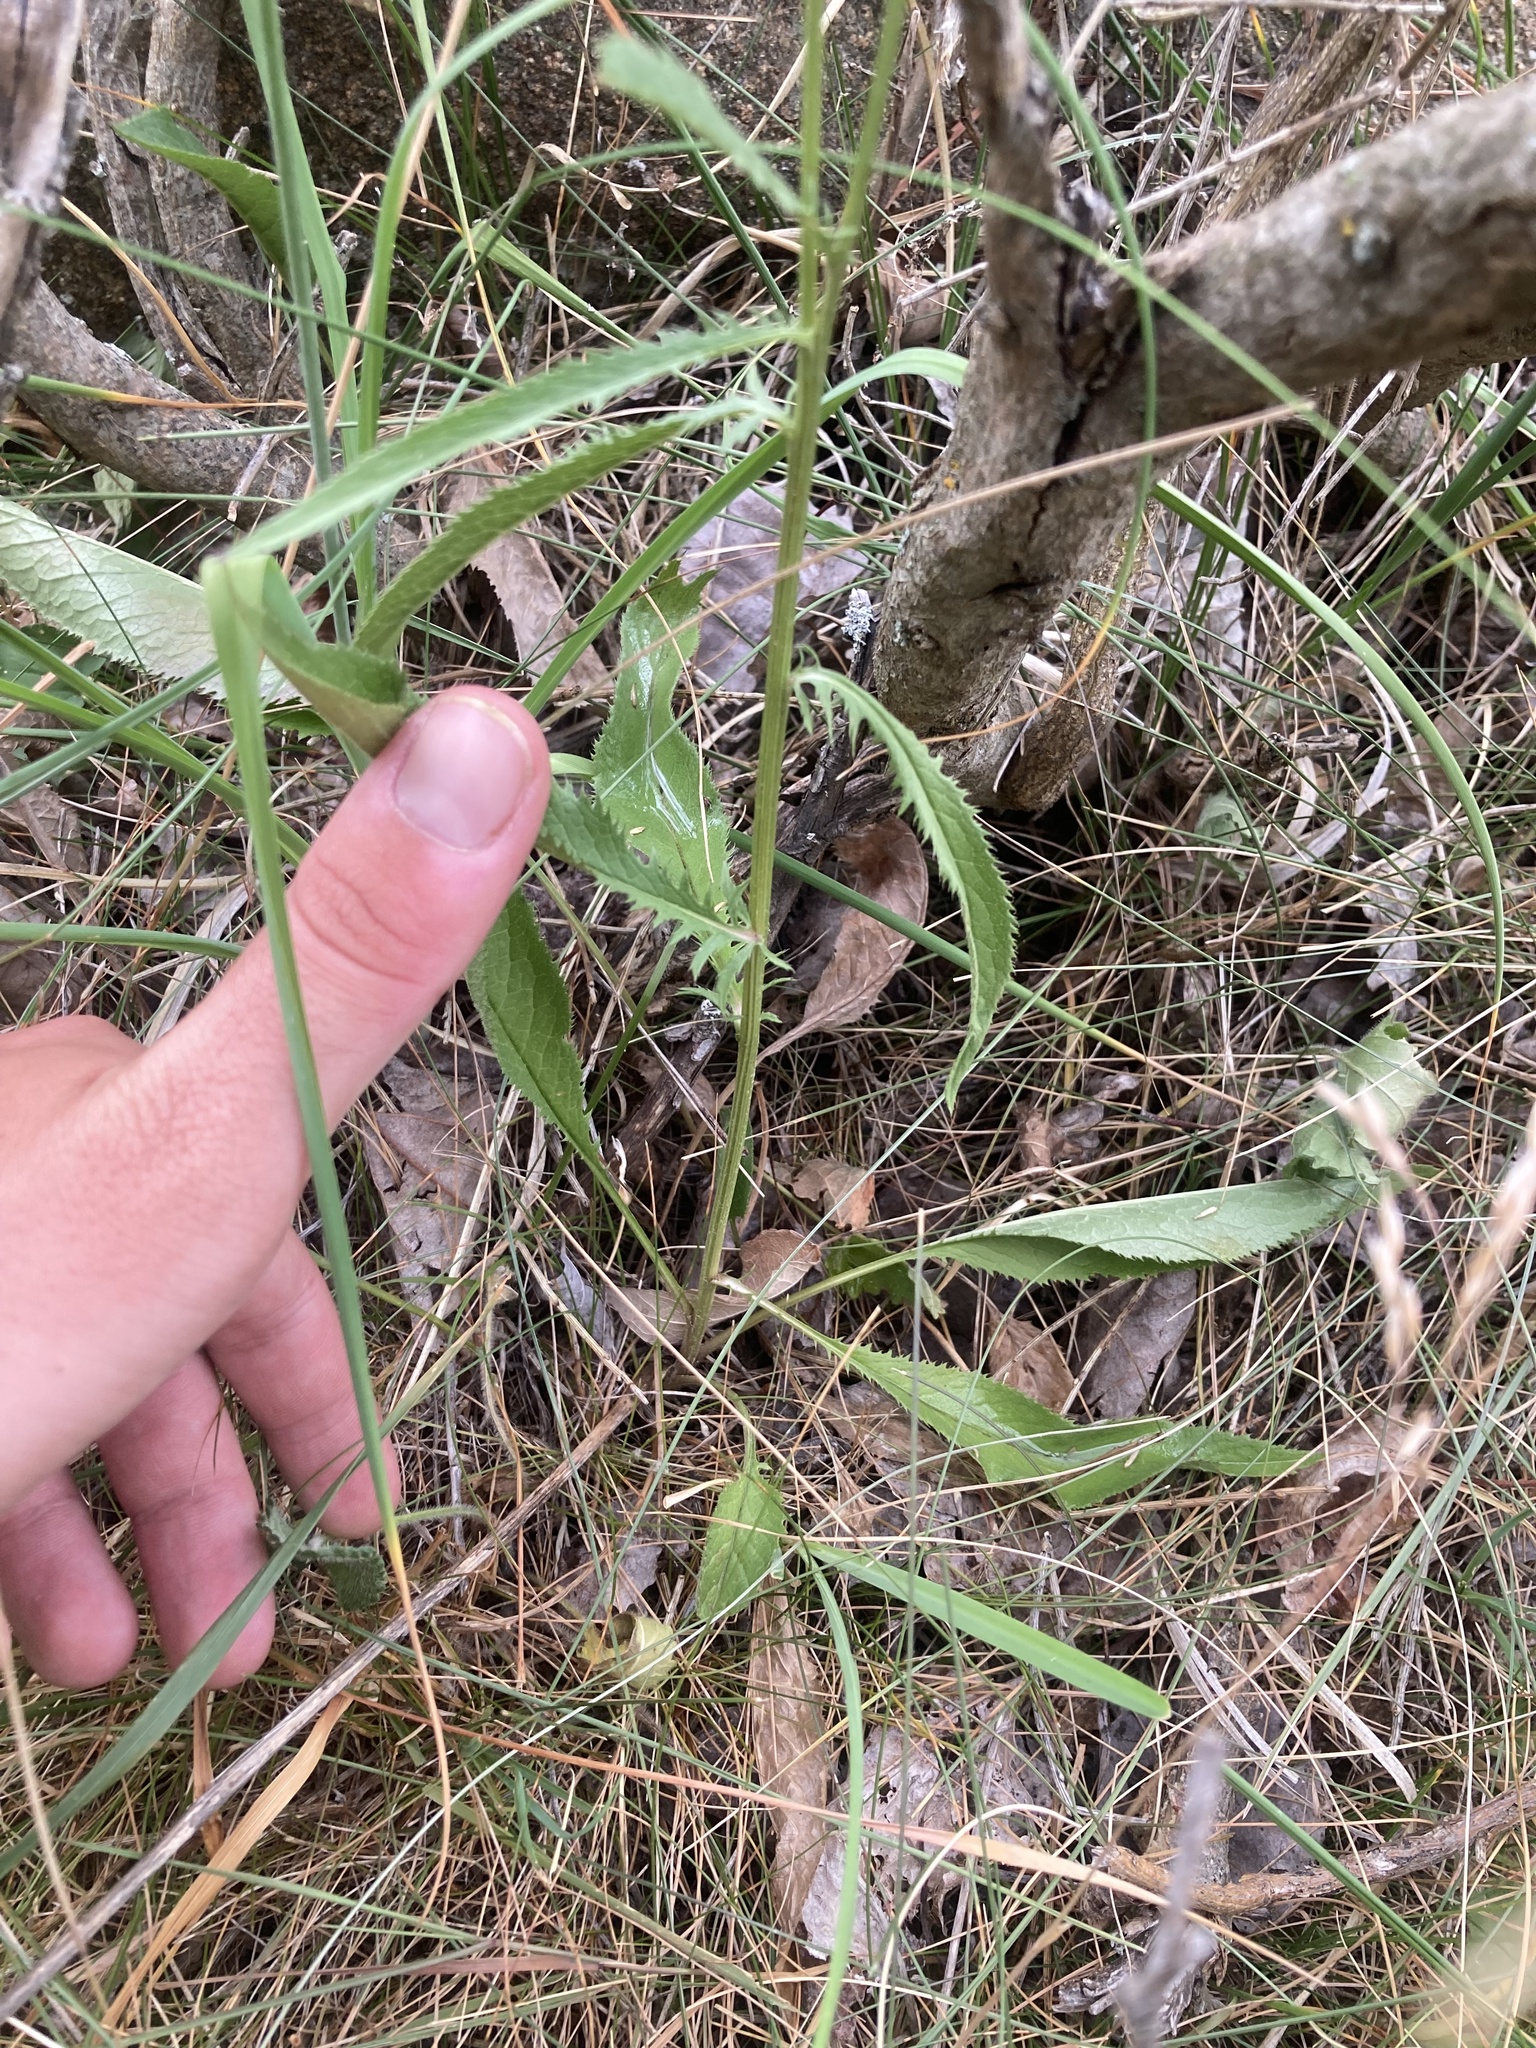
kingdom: Plantae
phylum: Tracheophyta
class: Magnoliopsida
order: Asterales
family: Asteraceae
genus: Serratula
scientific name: Serratula tinctoria
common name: Saw-wort
